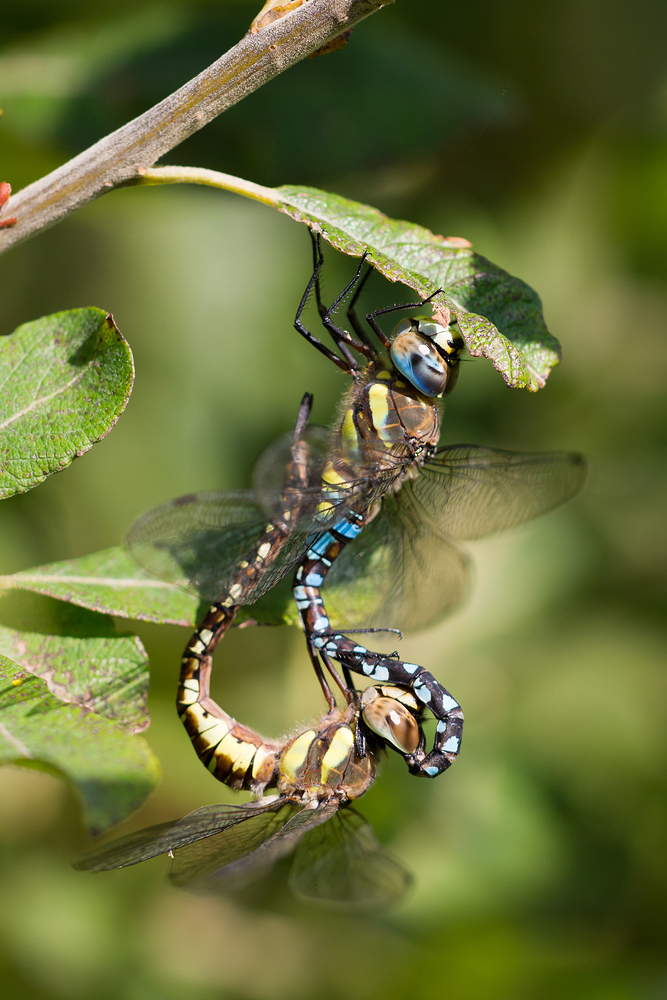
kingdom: Animalia
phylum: Arthropoda
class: Insecta
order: Odonata
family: Aeshnidae
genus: Aeshna
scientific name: Aeshna mixta
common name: Migrant hawker
